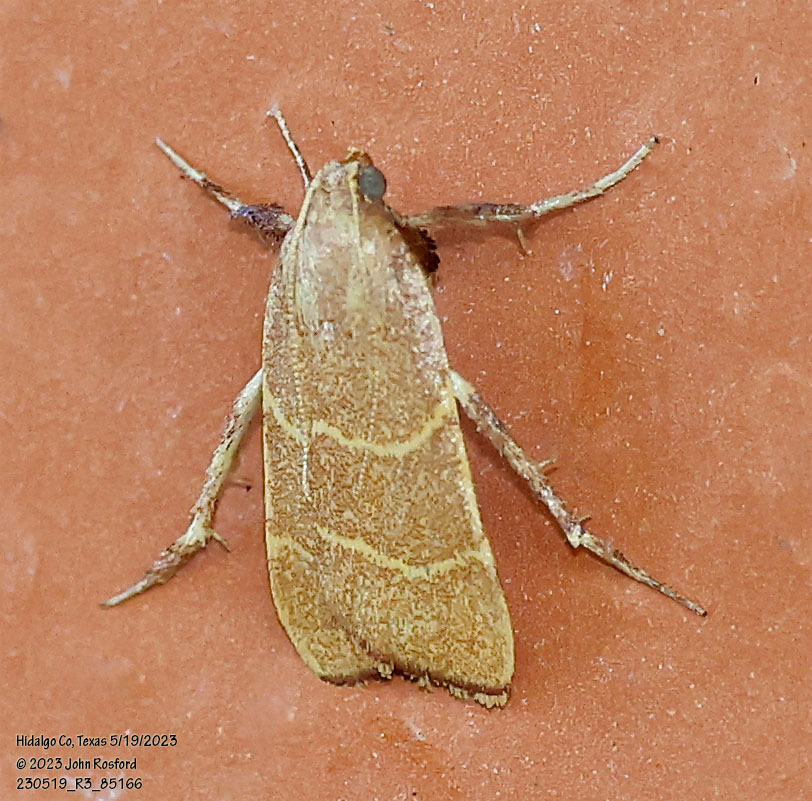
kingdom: Animalia
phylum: Arthropoda
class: Insecta
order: Lepidoptera
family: Pyralidae
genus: Parachma
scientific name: Parachma ochracealis
